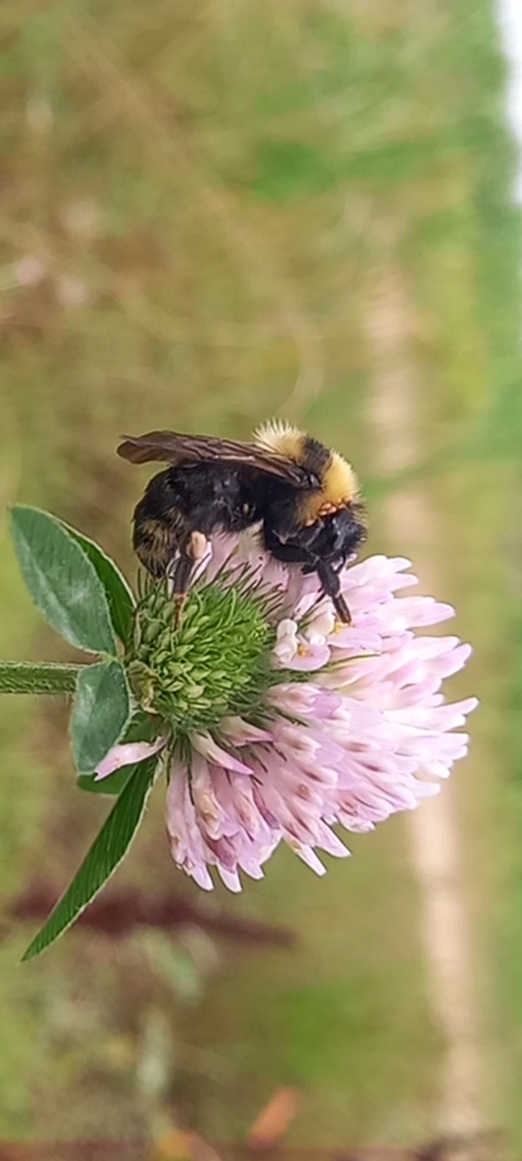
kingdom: Animalia
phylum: Arthropoda
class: Arachnida
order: Mesostigmata
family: Parasitidae
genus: Parasitellus
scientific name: Parasitellus
